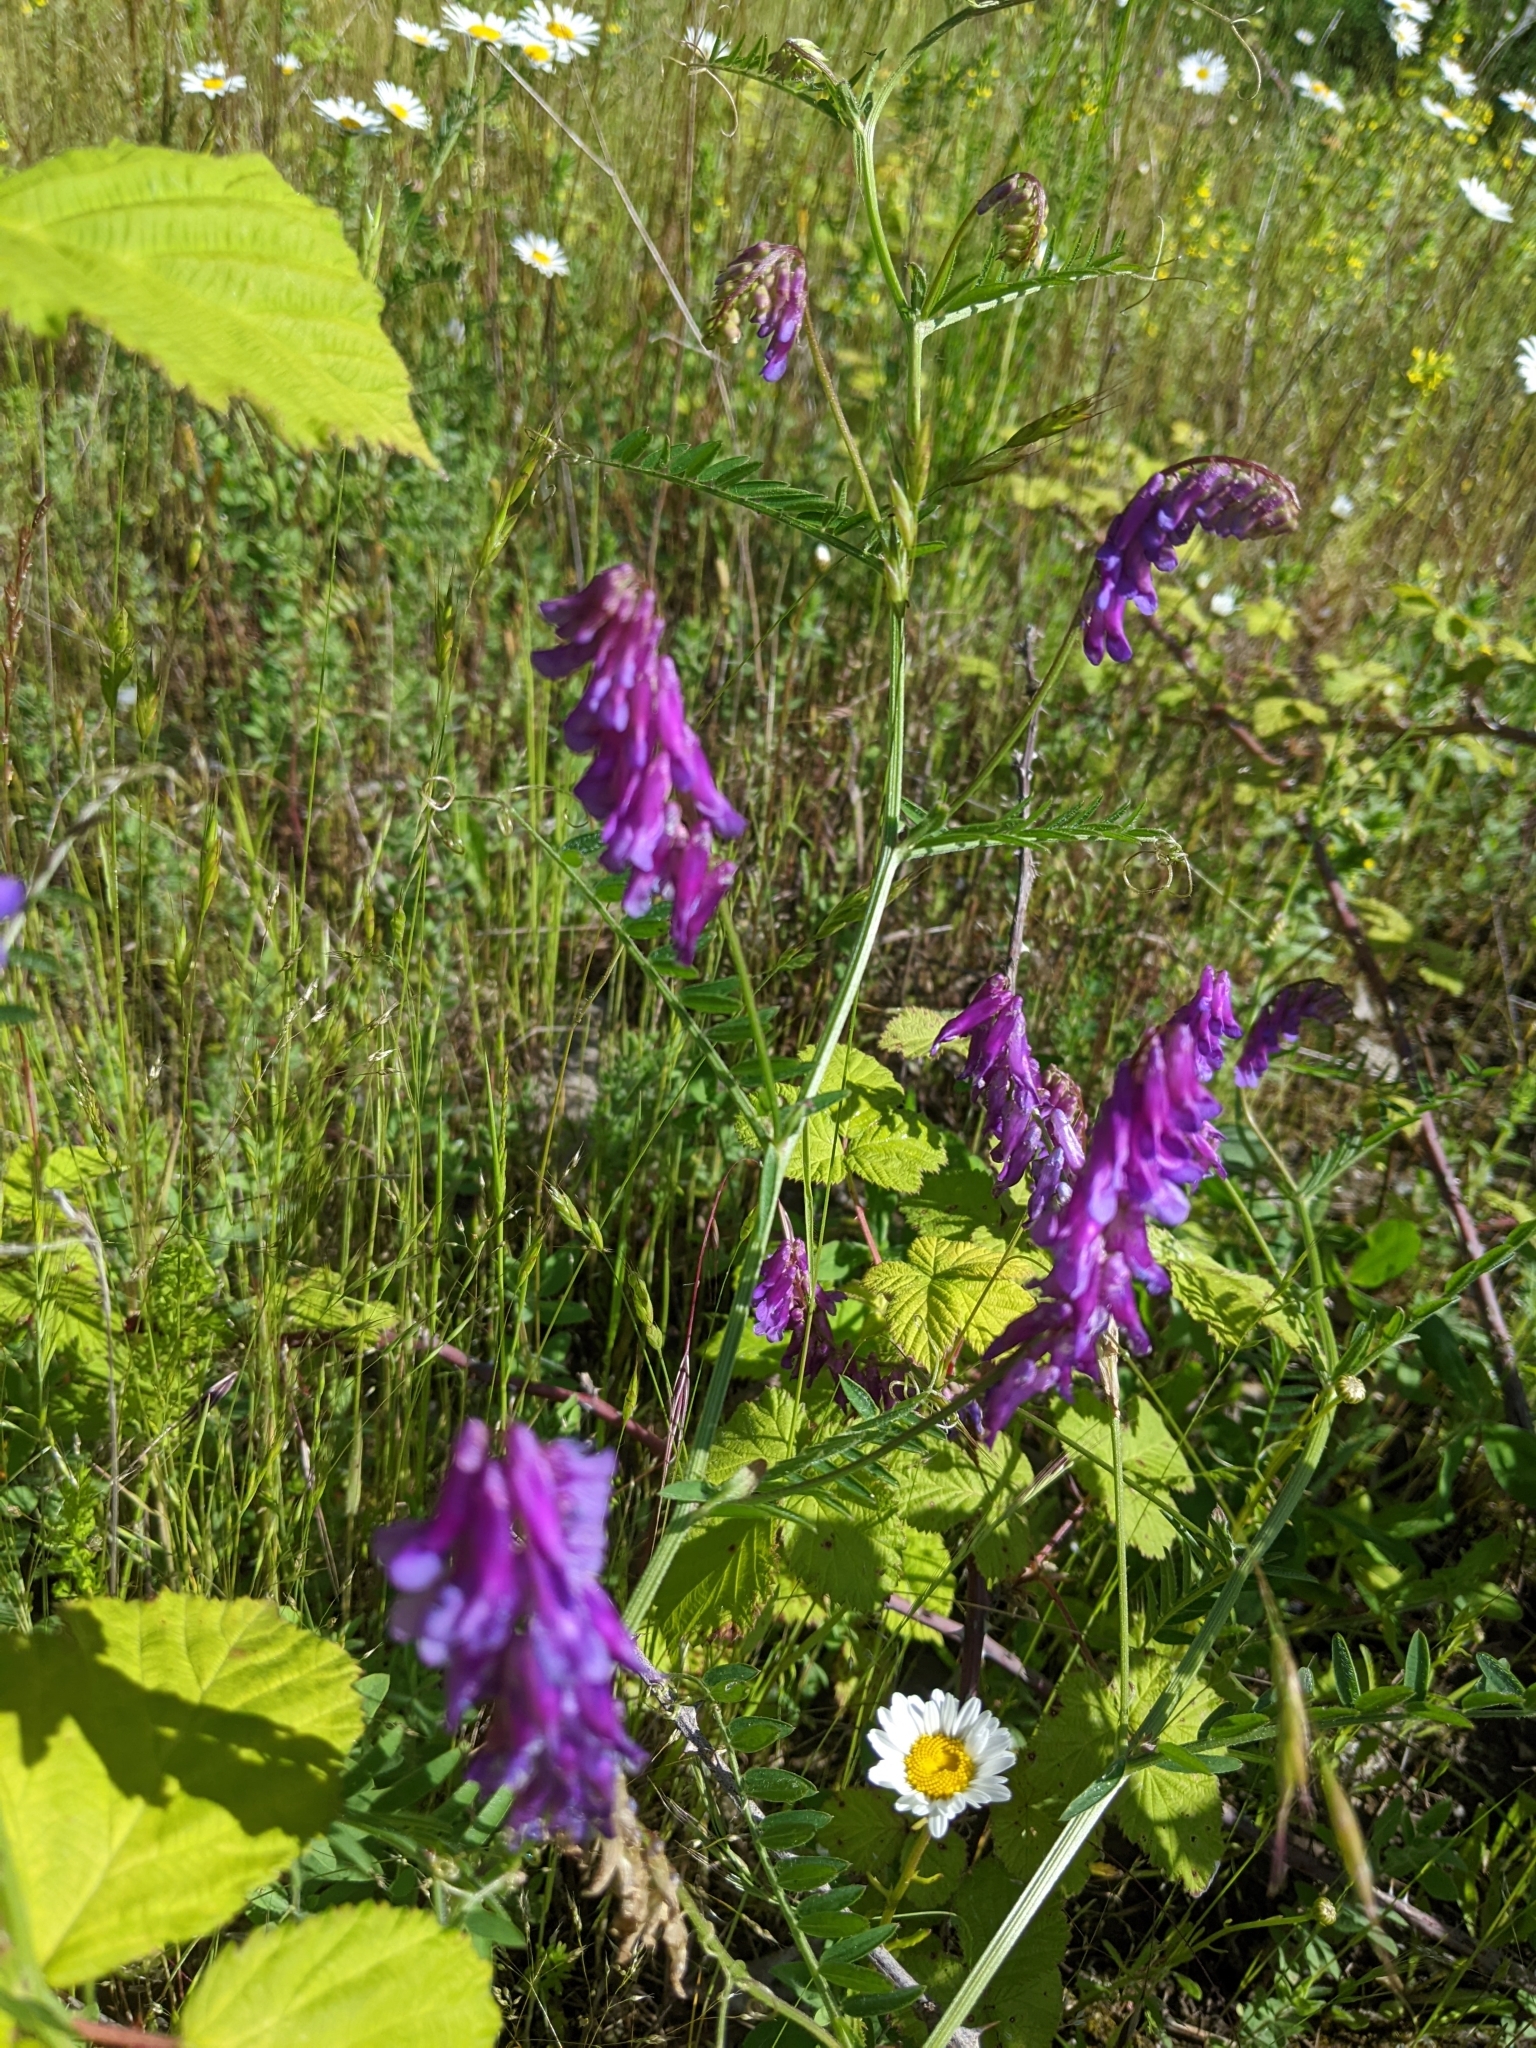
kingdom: Plantae
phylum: Tracheophyta
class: Magnoliopsida
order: Fabales
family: Fabaceae
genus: Vicia
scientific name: Vicia villosa
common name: Fodder vetch
